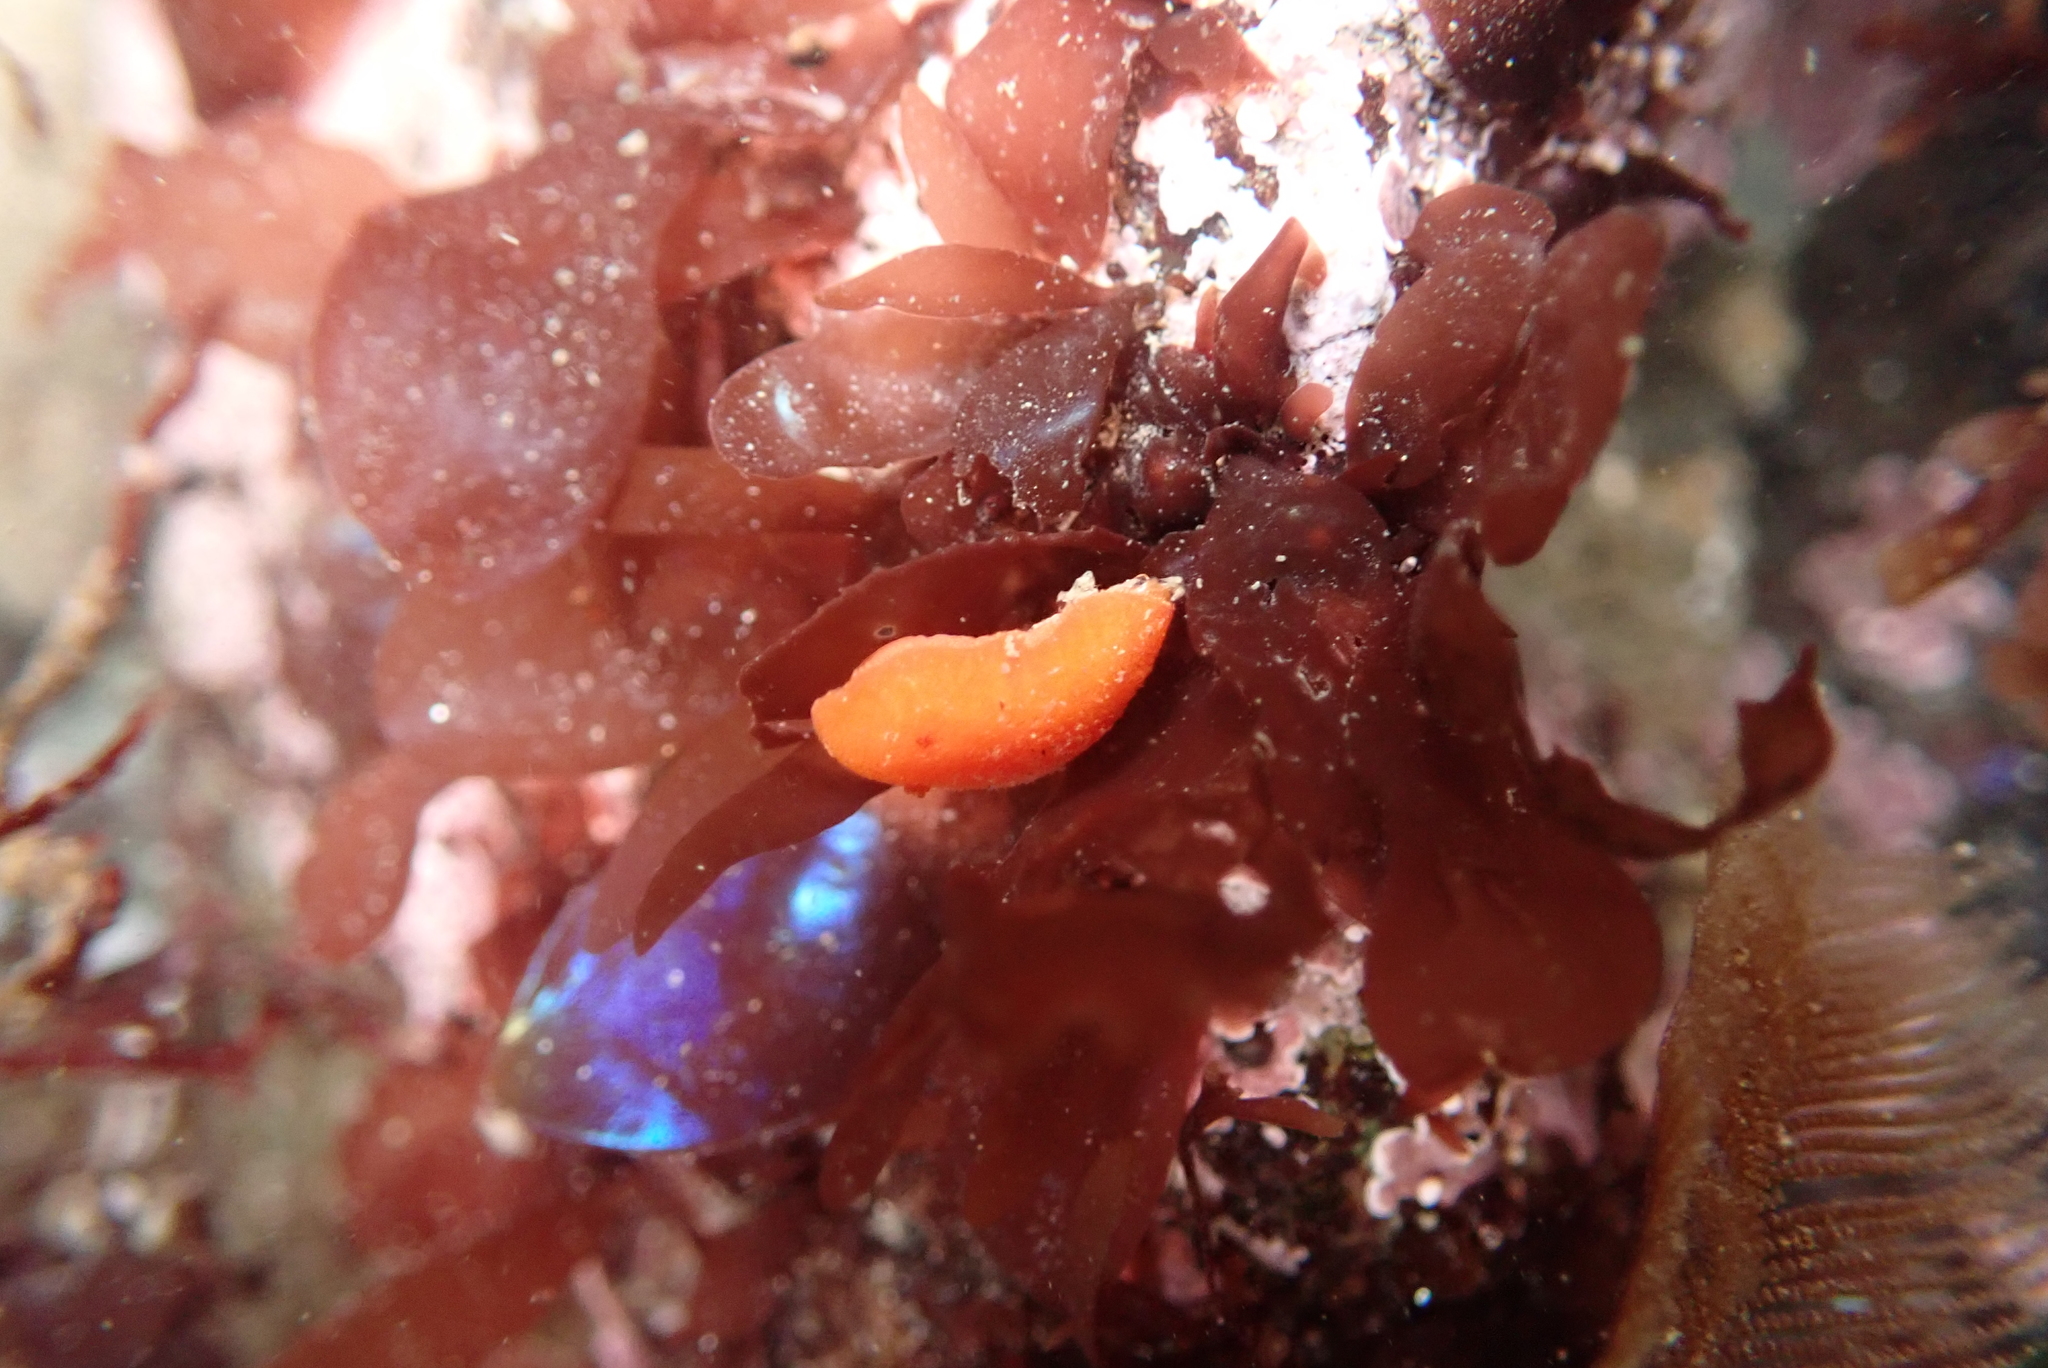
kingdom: Animalia
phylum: Mollusca
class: Gastropoda
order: Nudibranchia
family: Discodorididae
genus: Rostanga
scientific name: Rostanga pulchra
